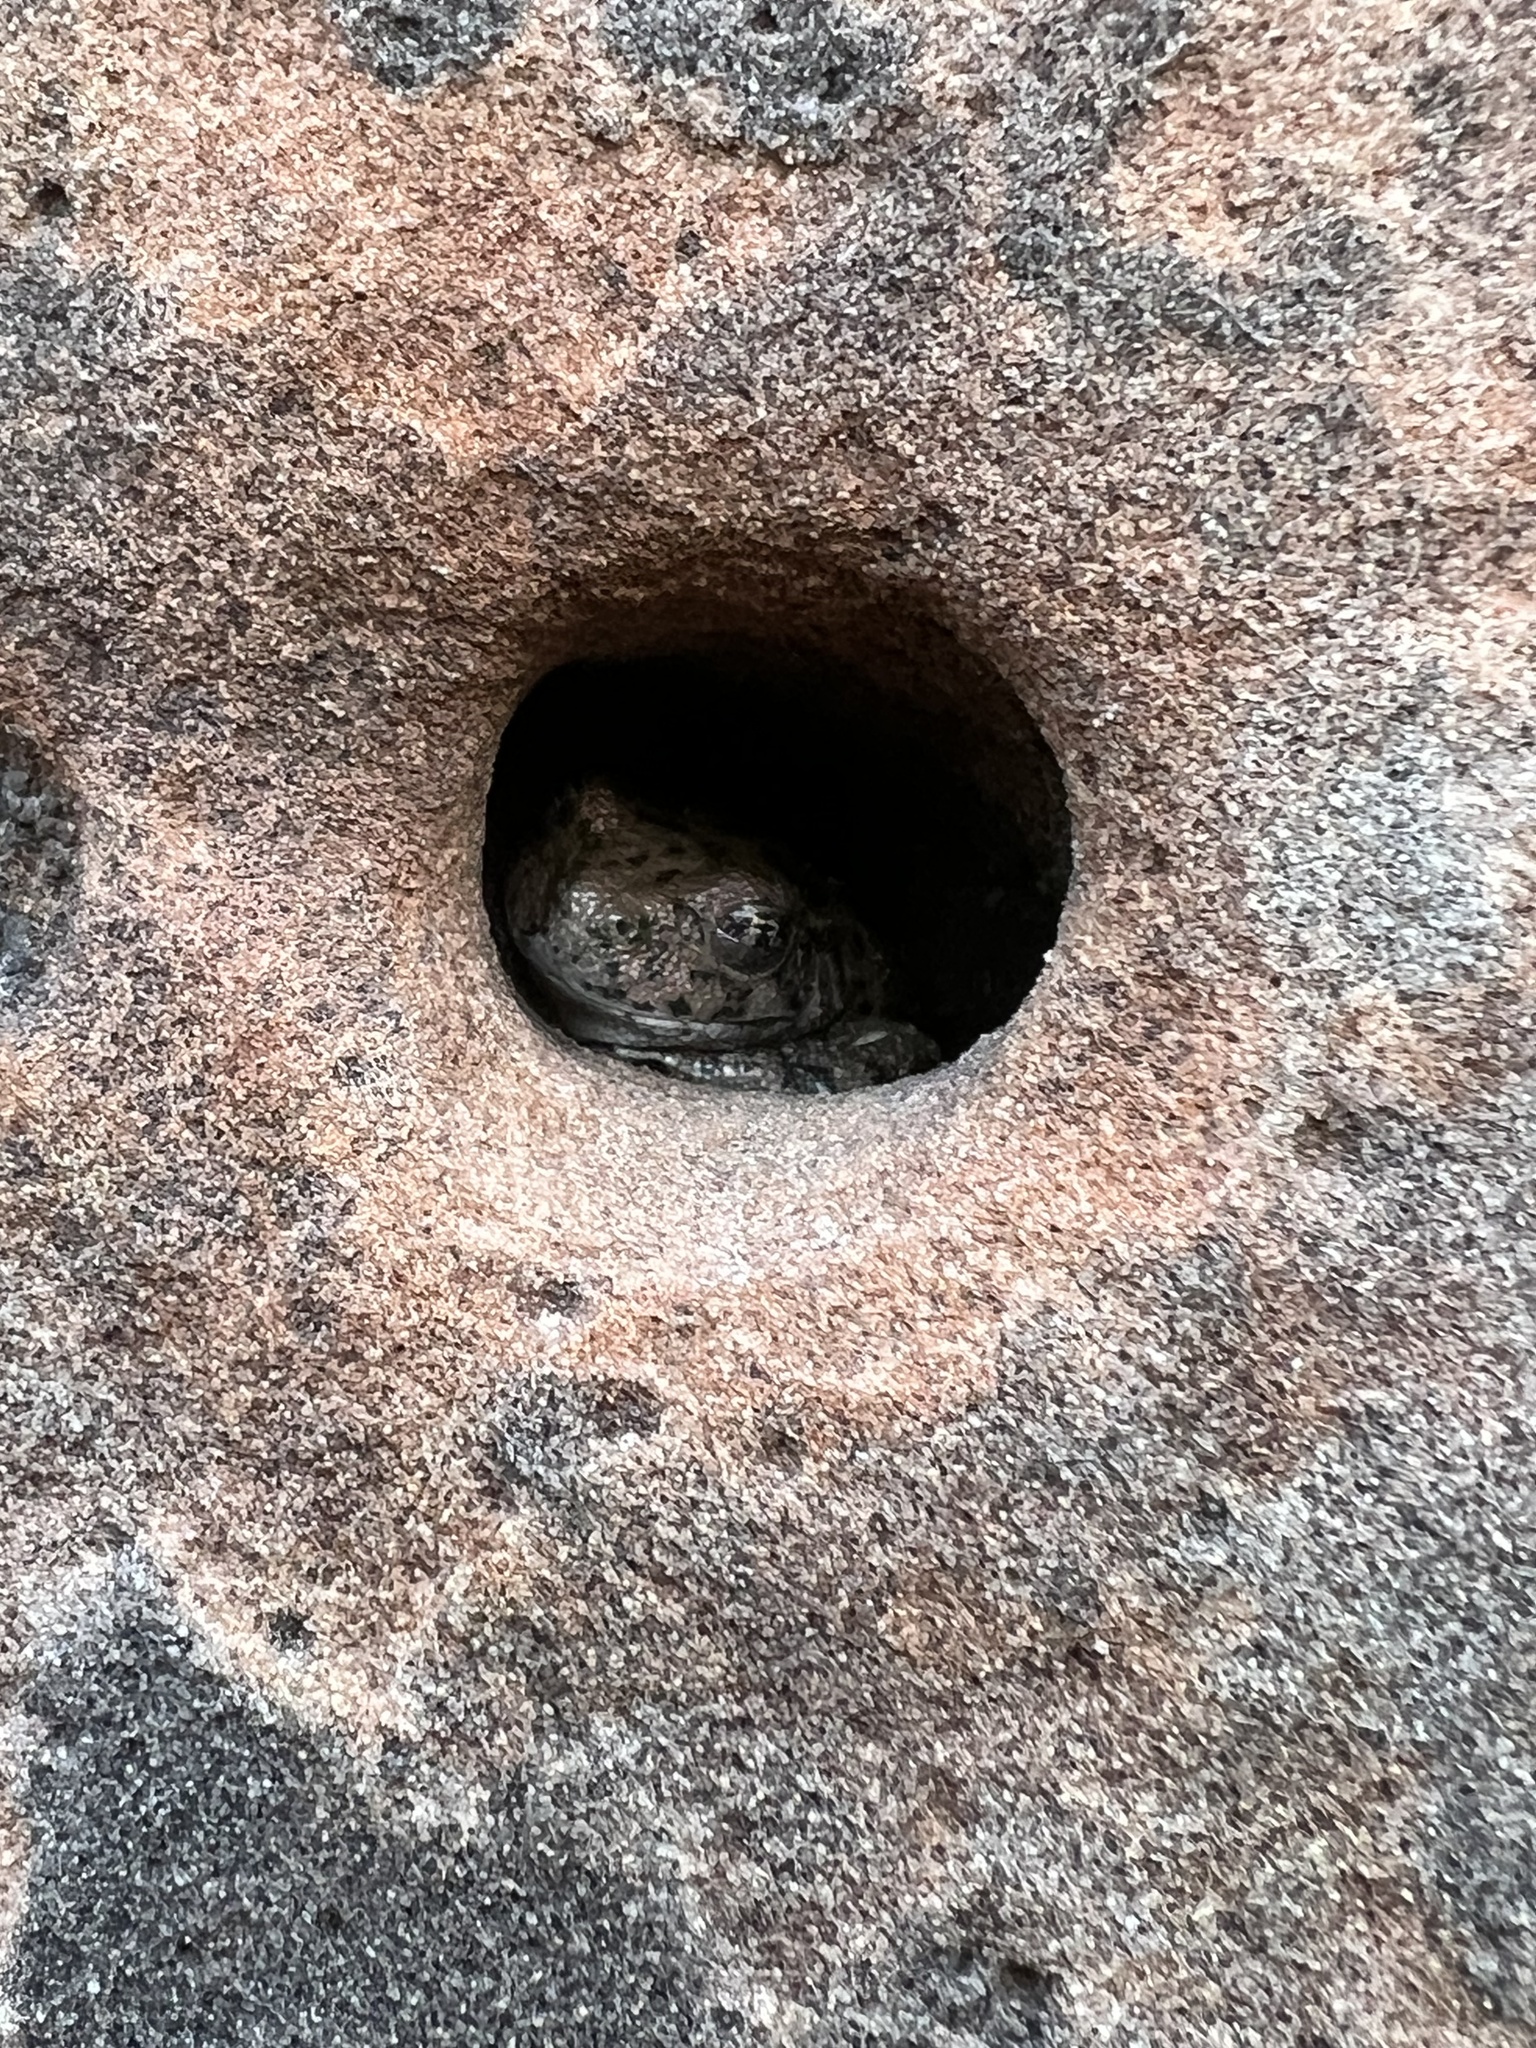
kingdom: Animalia
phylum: Chordata
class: Amphibia
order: Anura
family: Hylidae
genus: Dryophytes
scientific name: Dryophytes arenicolor
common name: Canyon treefrog
